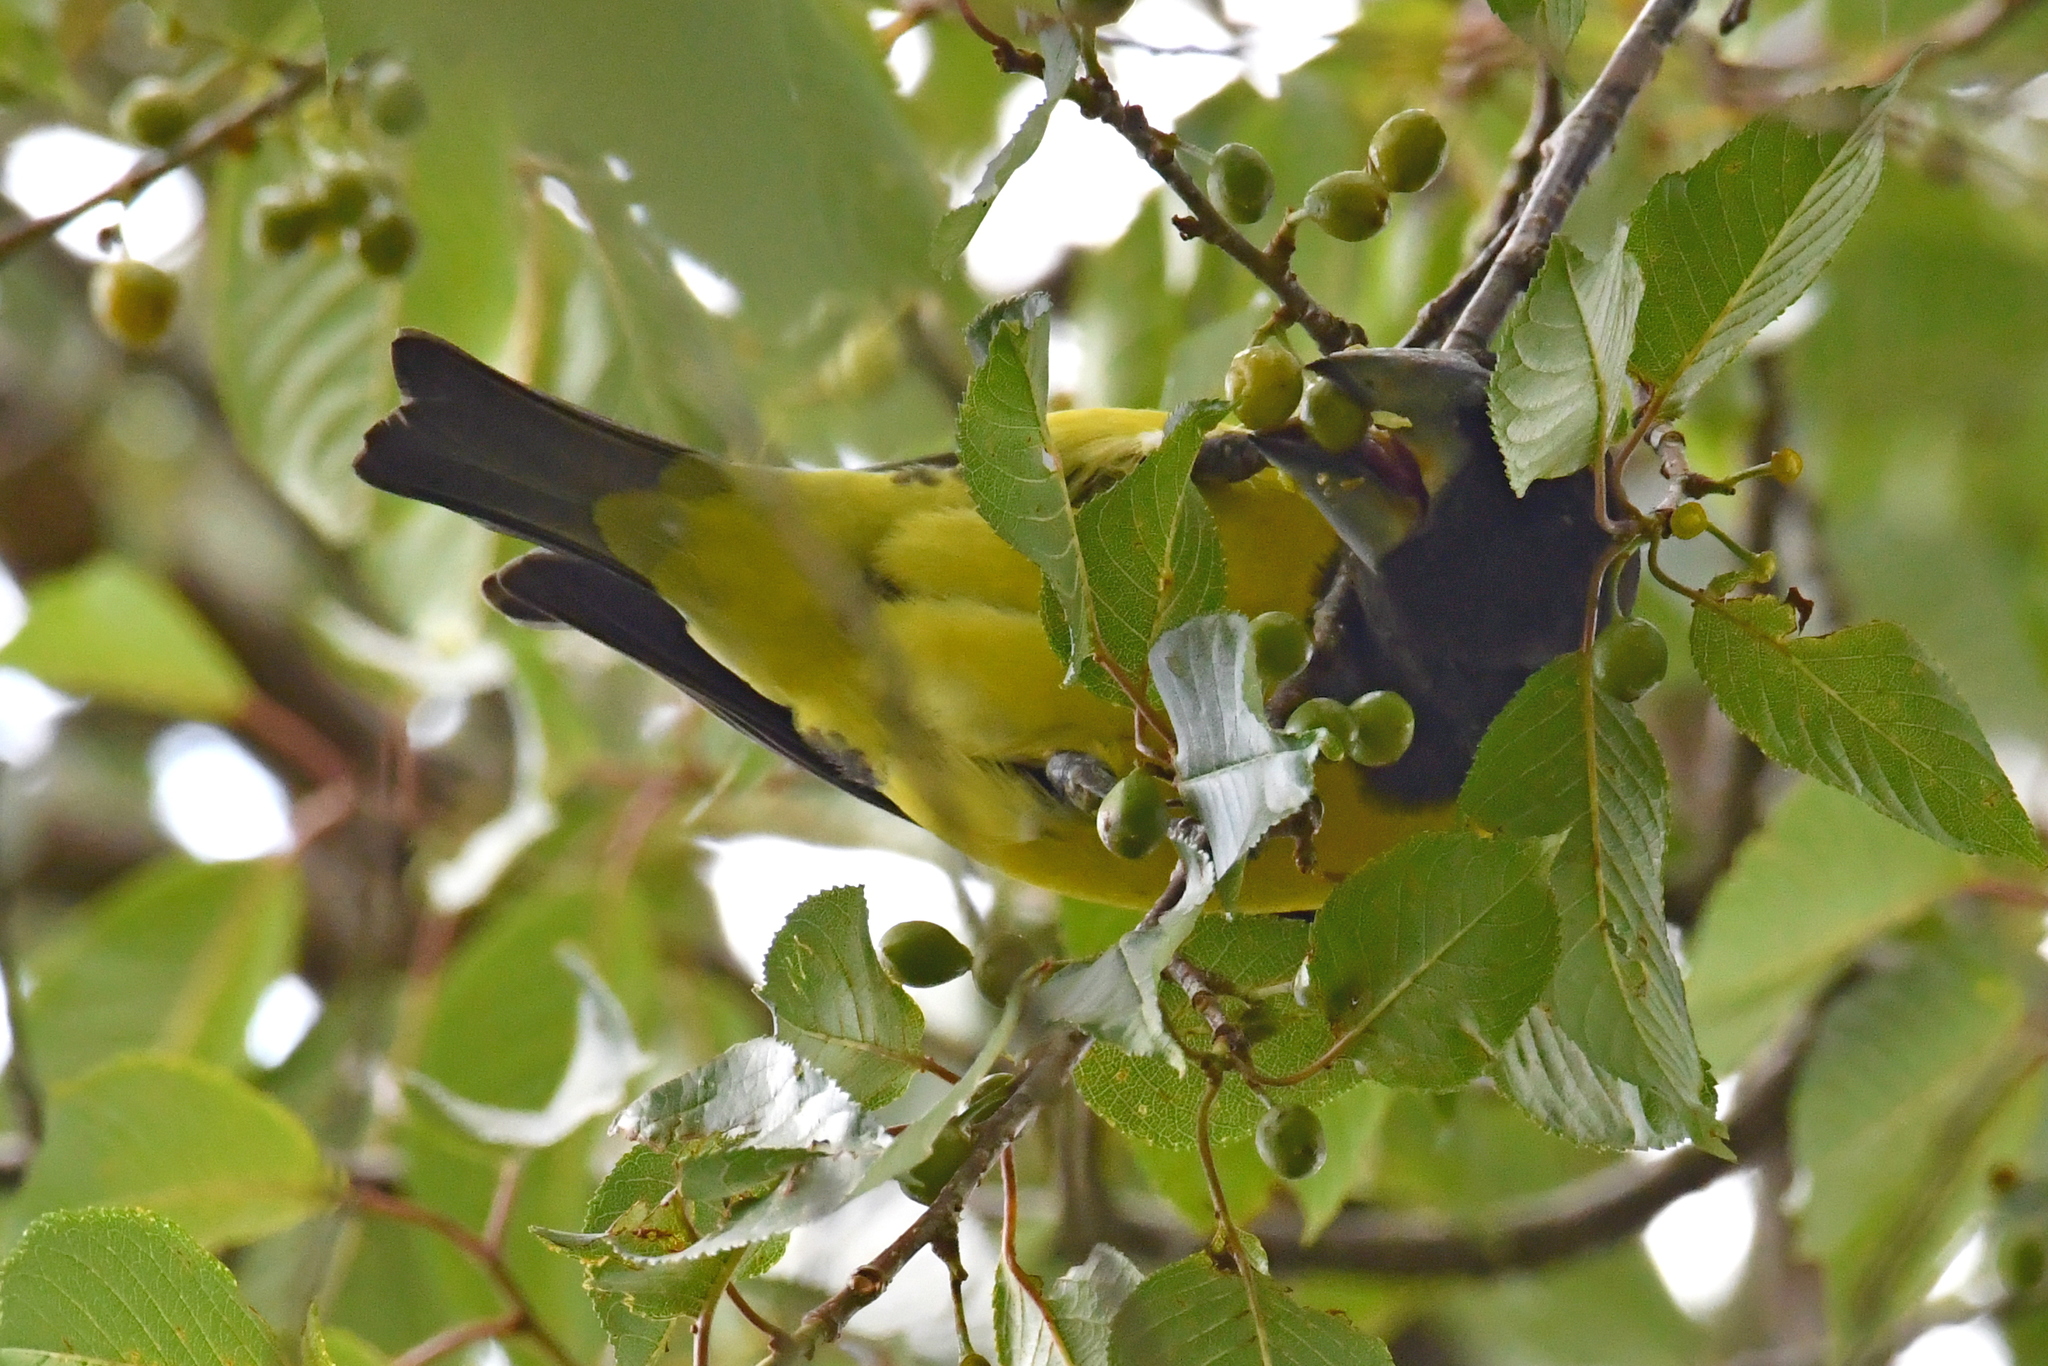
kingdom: Animalia
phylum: Chordata
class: Aves
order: Passeriformes
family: Fringillidae
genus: Mycerobas
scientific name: Mycerobas melanozanthos
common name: Spot-winged grosbeak
